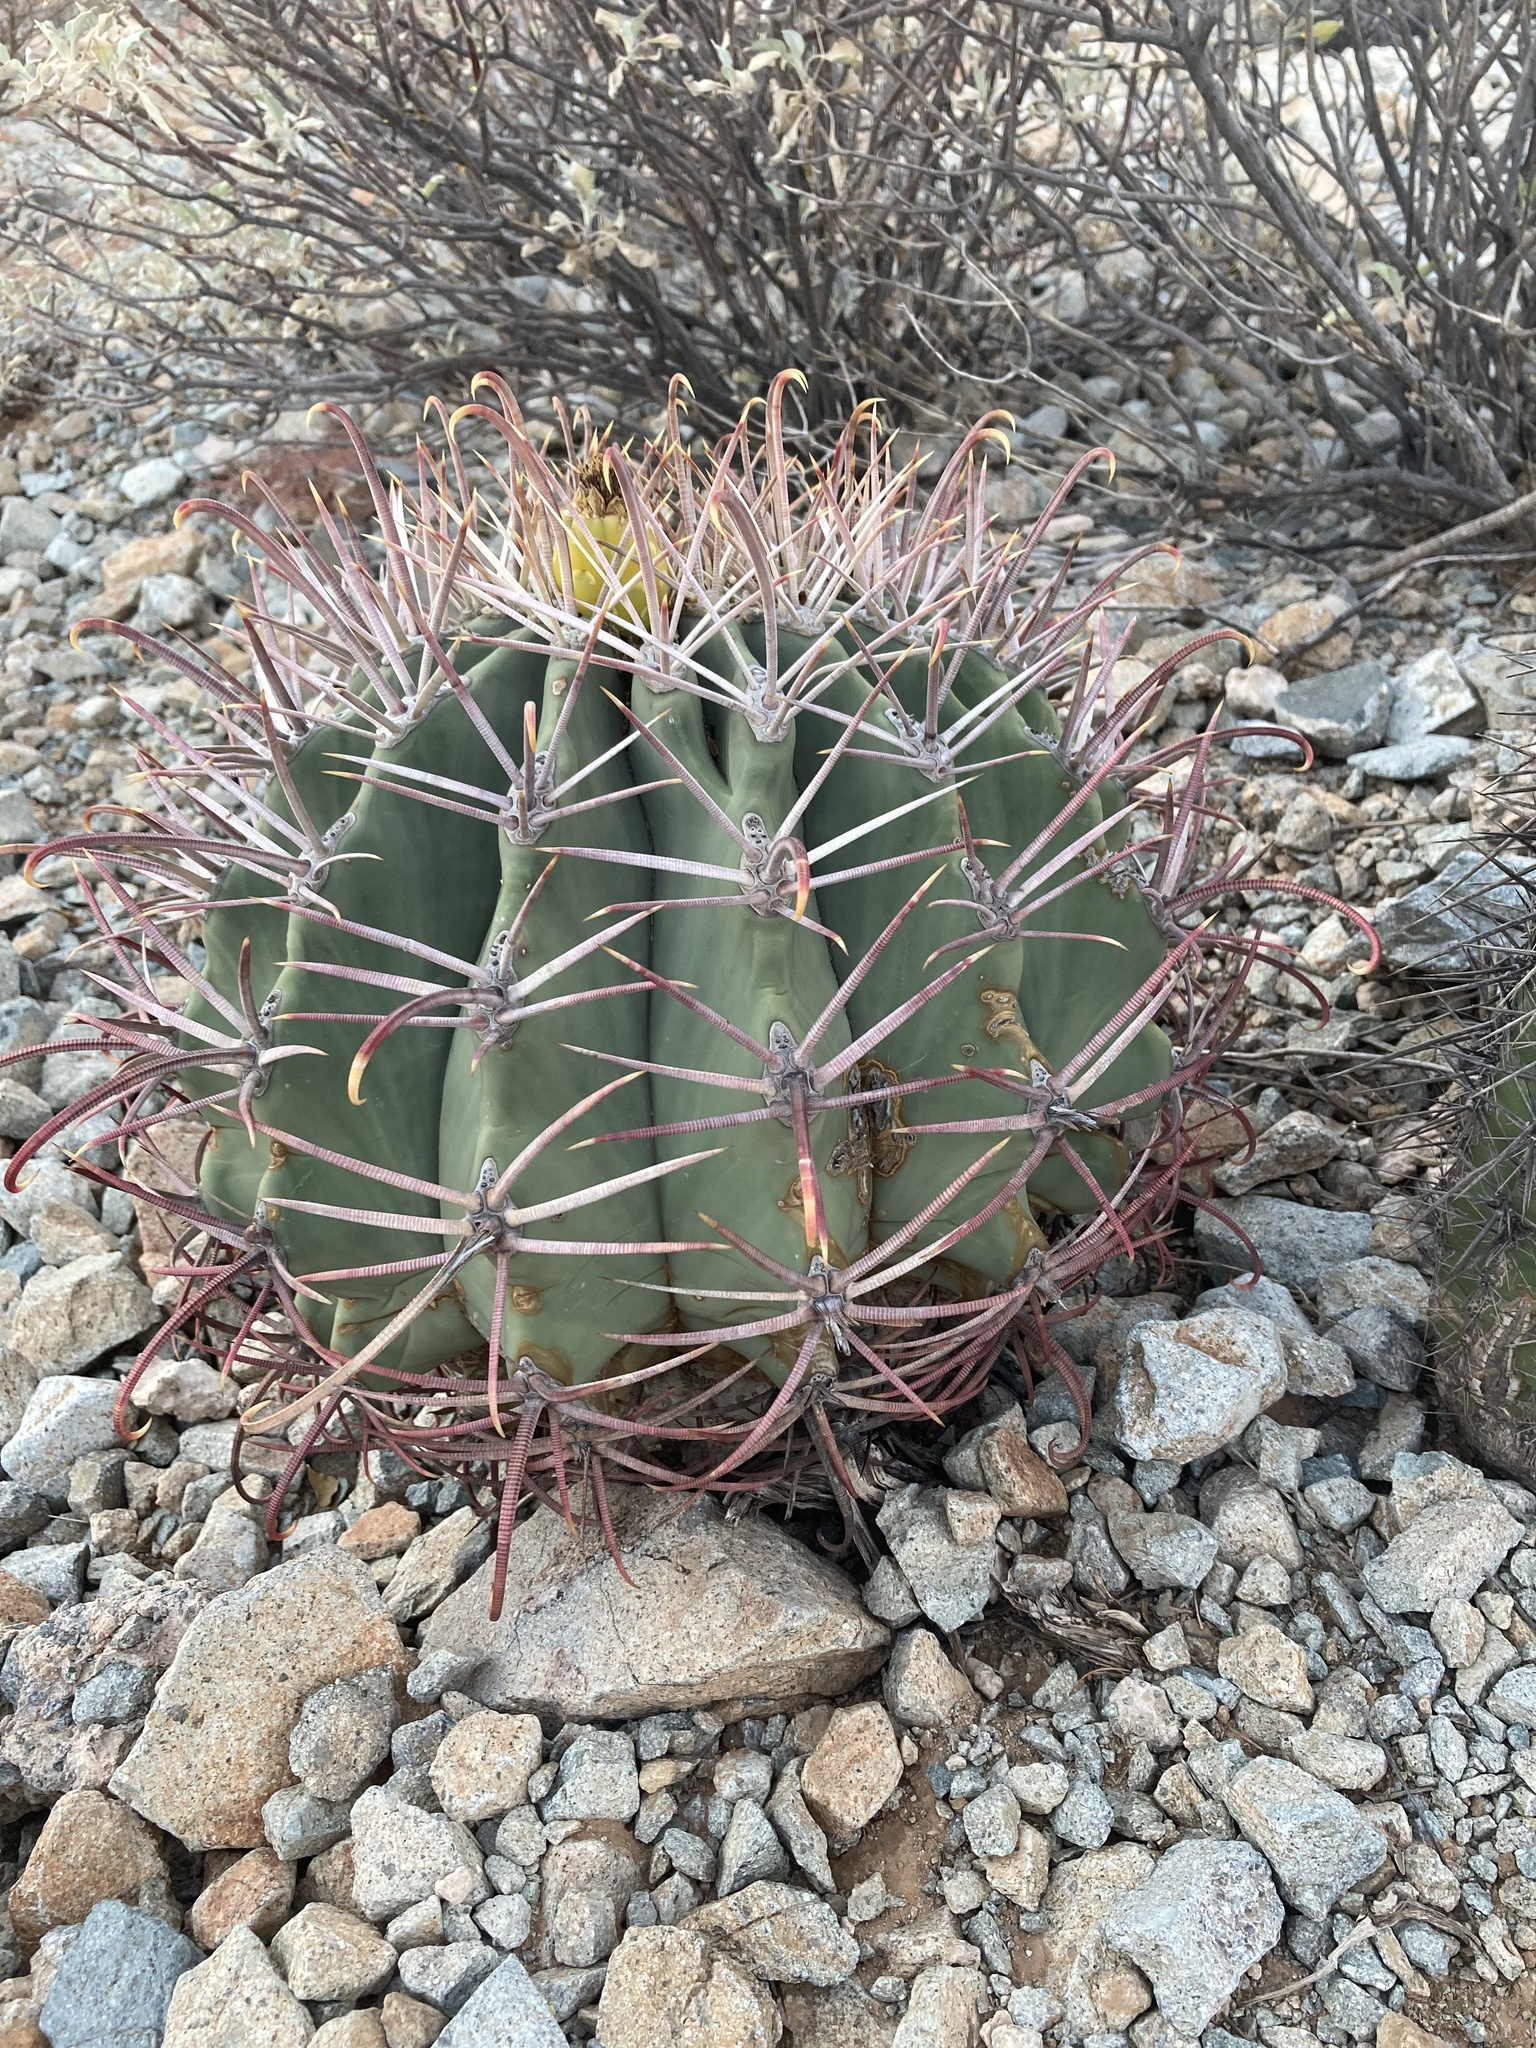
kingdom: Plantae
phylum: Tracheophyta
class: Magnoliopsida
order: Caryophyllales
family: Cactaceae
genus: Ferocactus
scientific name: Ferocactus emoryi
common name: Emory's barrel cactus
